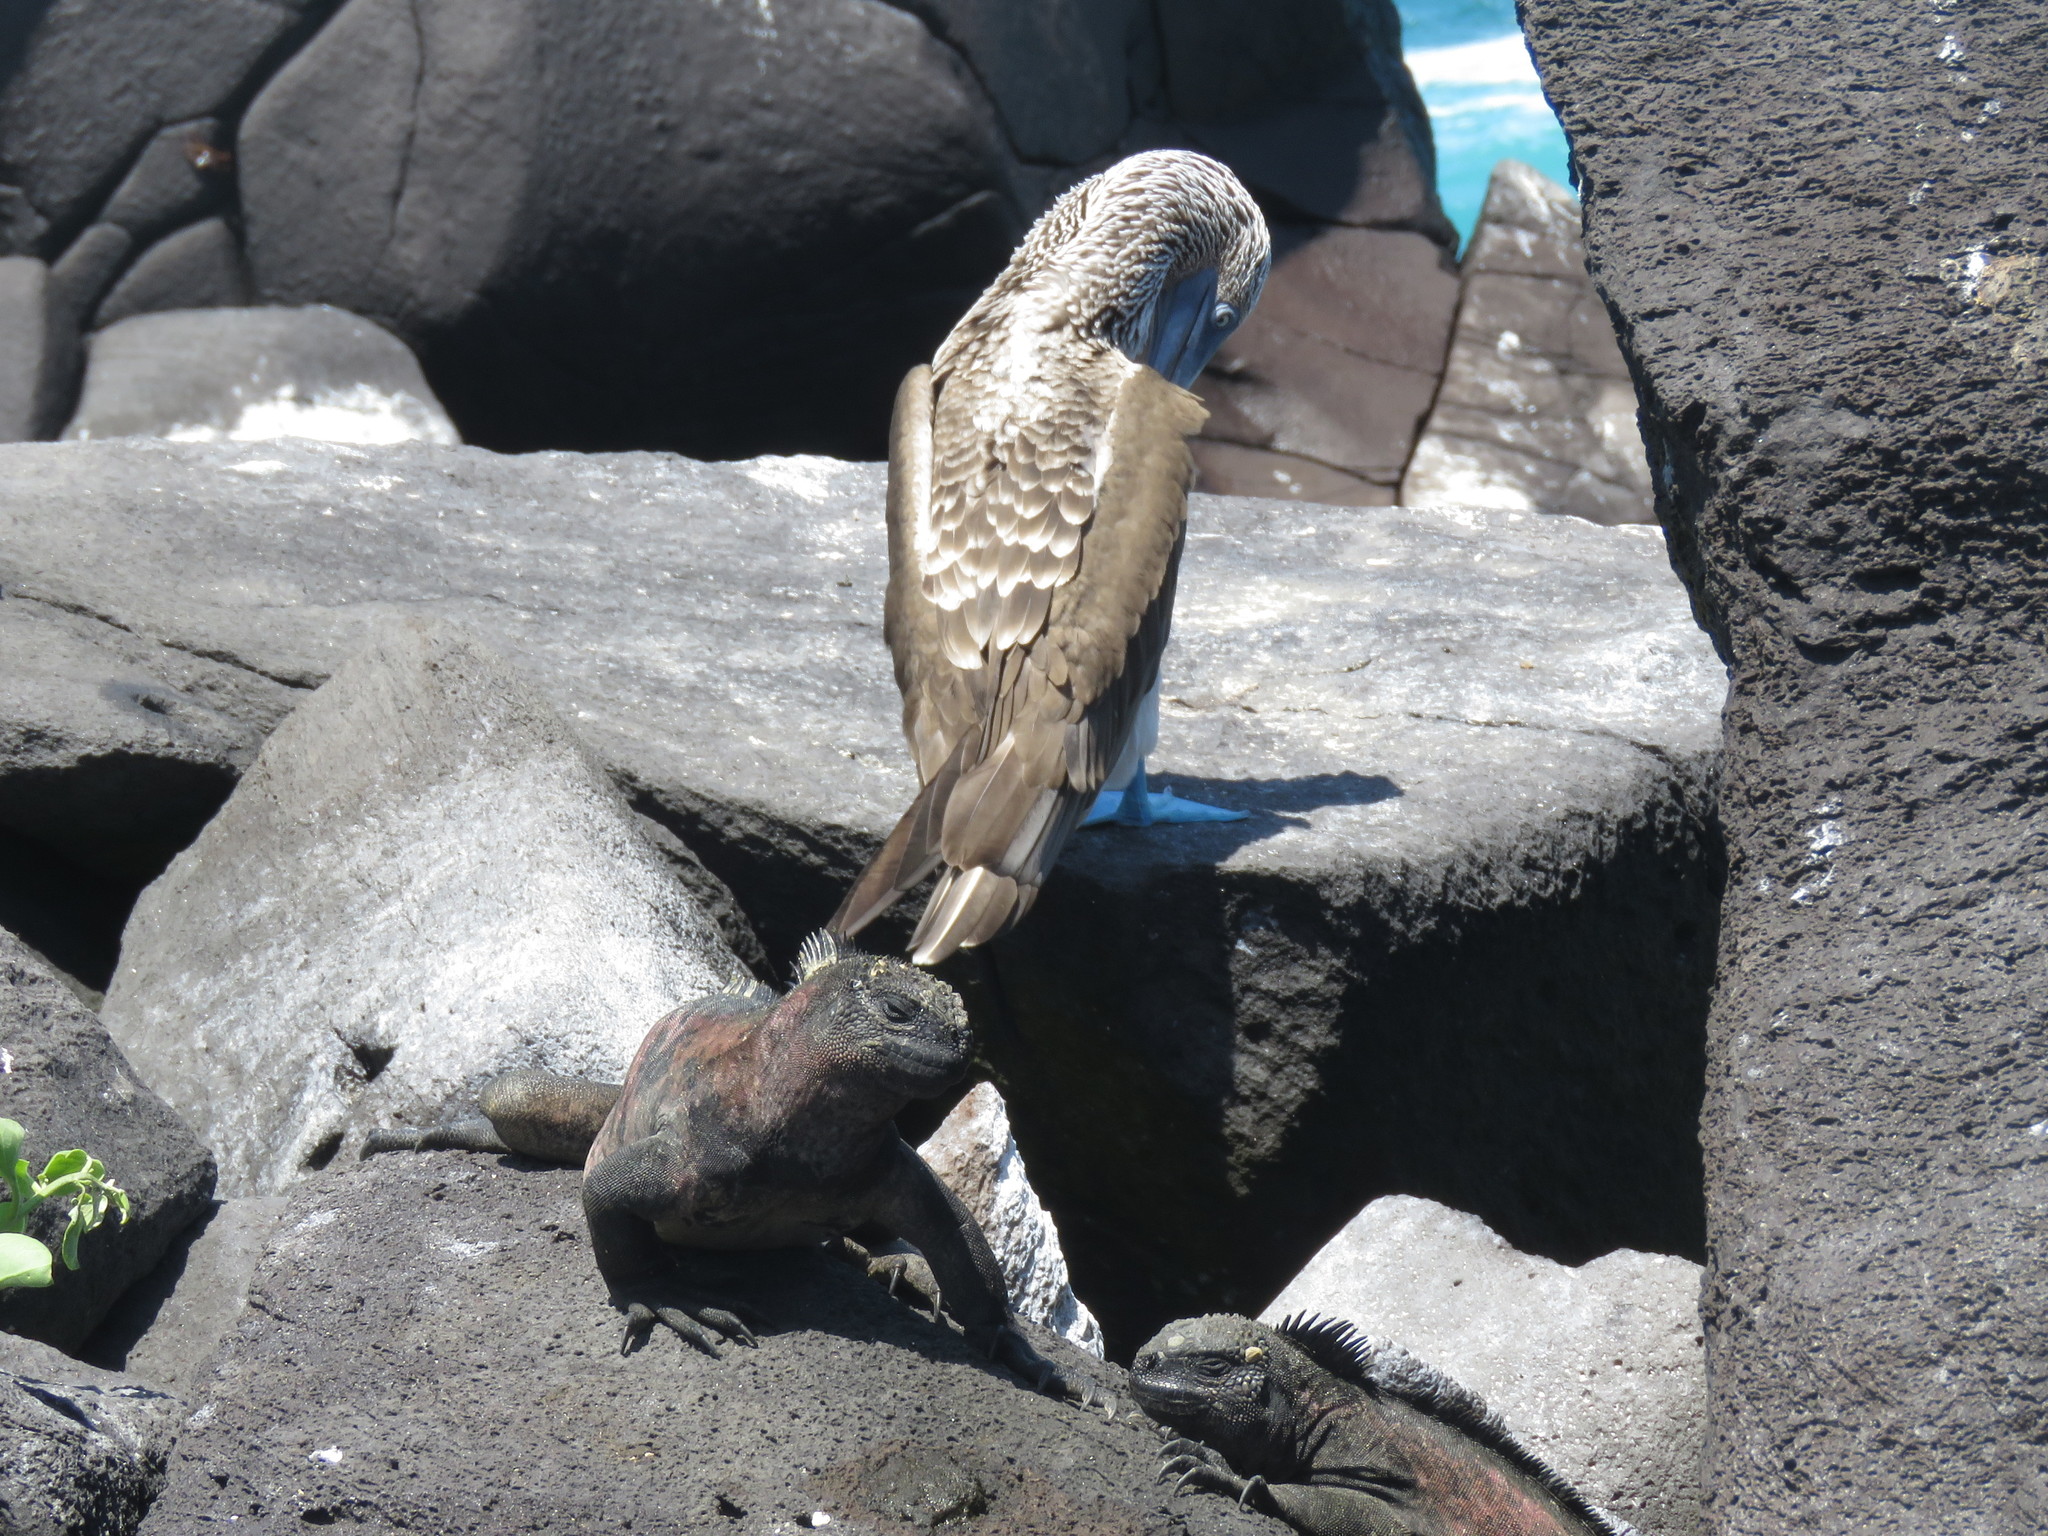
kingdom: Animalia
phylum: Chordata
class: Squamata
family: Iguanidae
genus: Amblyrhynchus
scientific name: Amblyrhynchus cristatus
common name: Marine iguana
